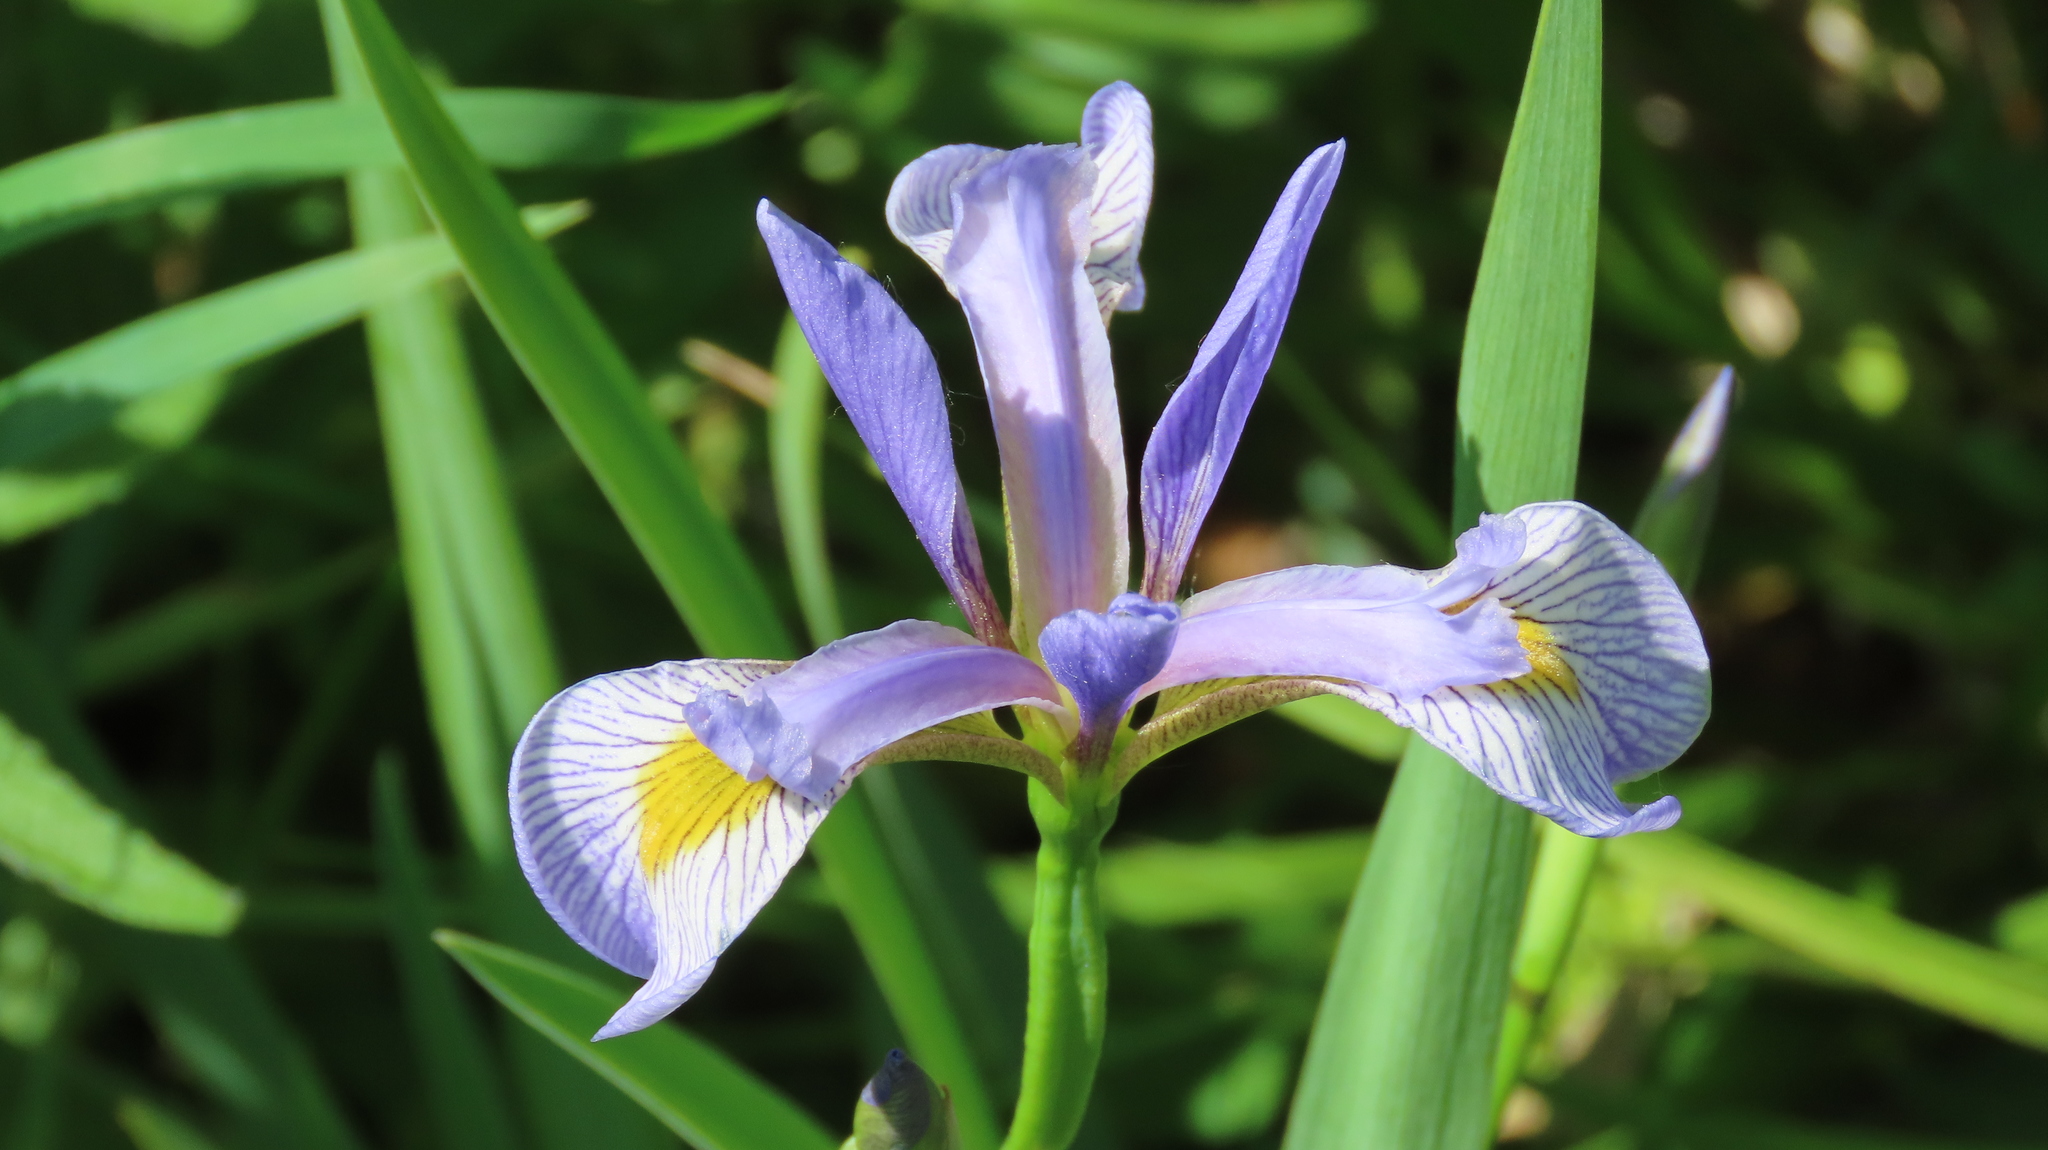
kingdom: Plantae
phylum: Tracheophyta
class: Liliopsida
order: Asparagales
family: Iridaceae
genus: Iris
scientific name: Iris virginica
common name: Southern blue flag
